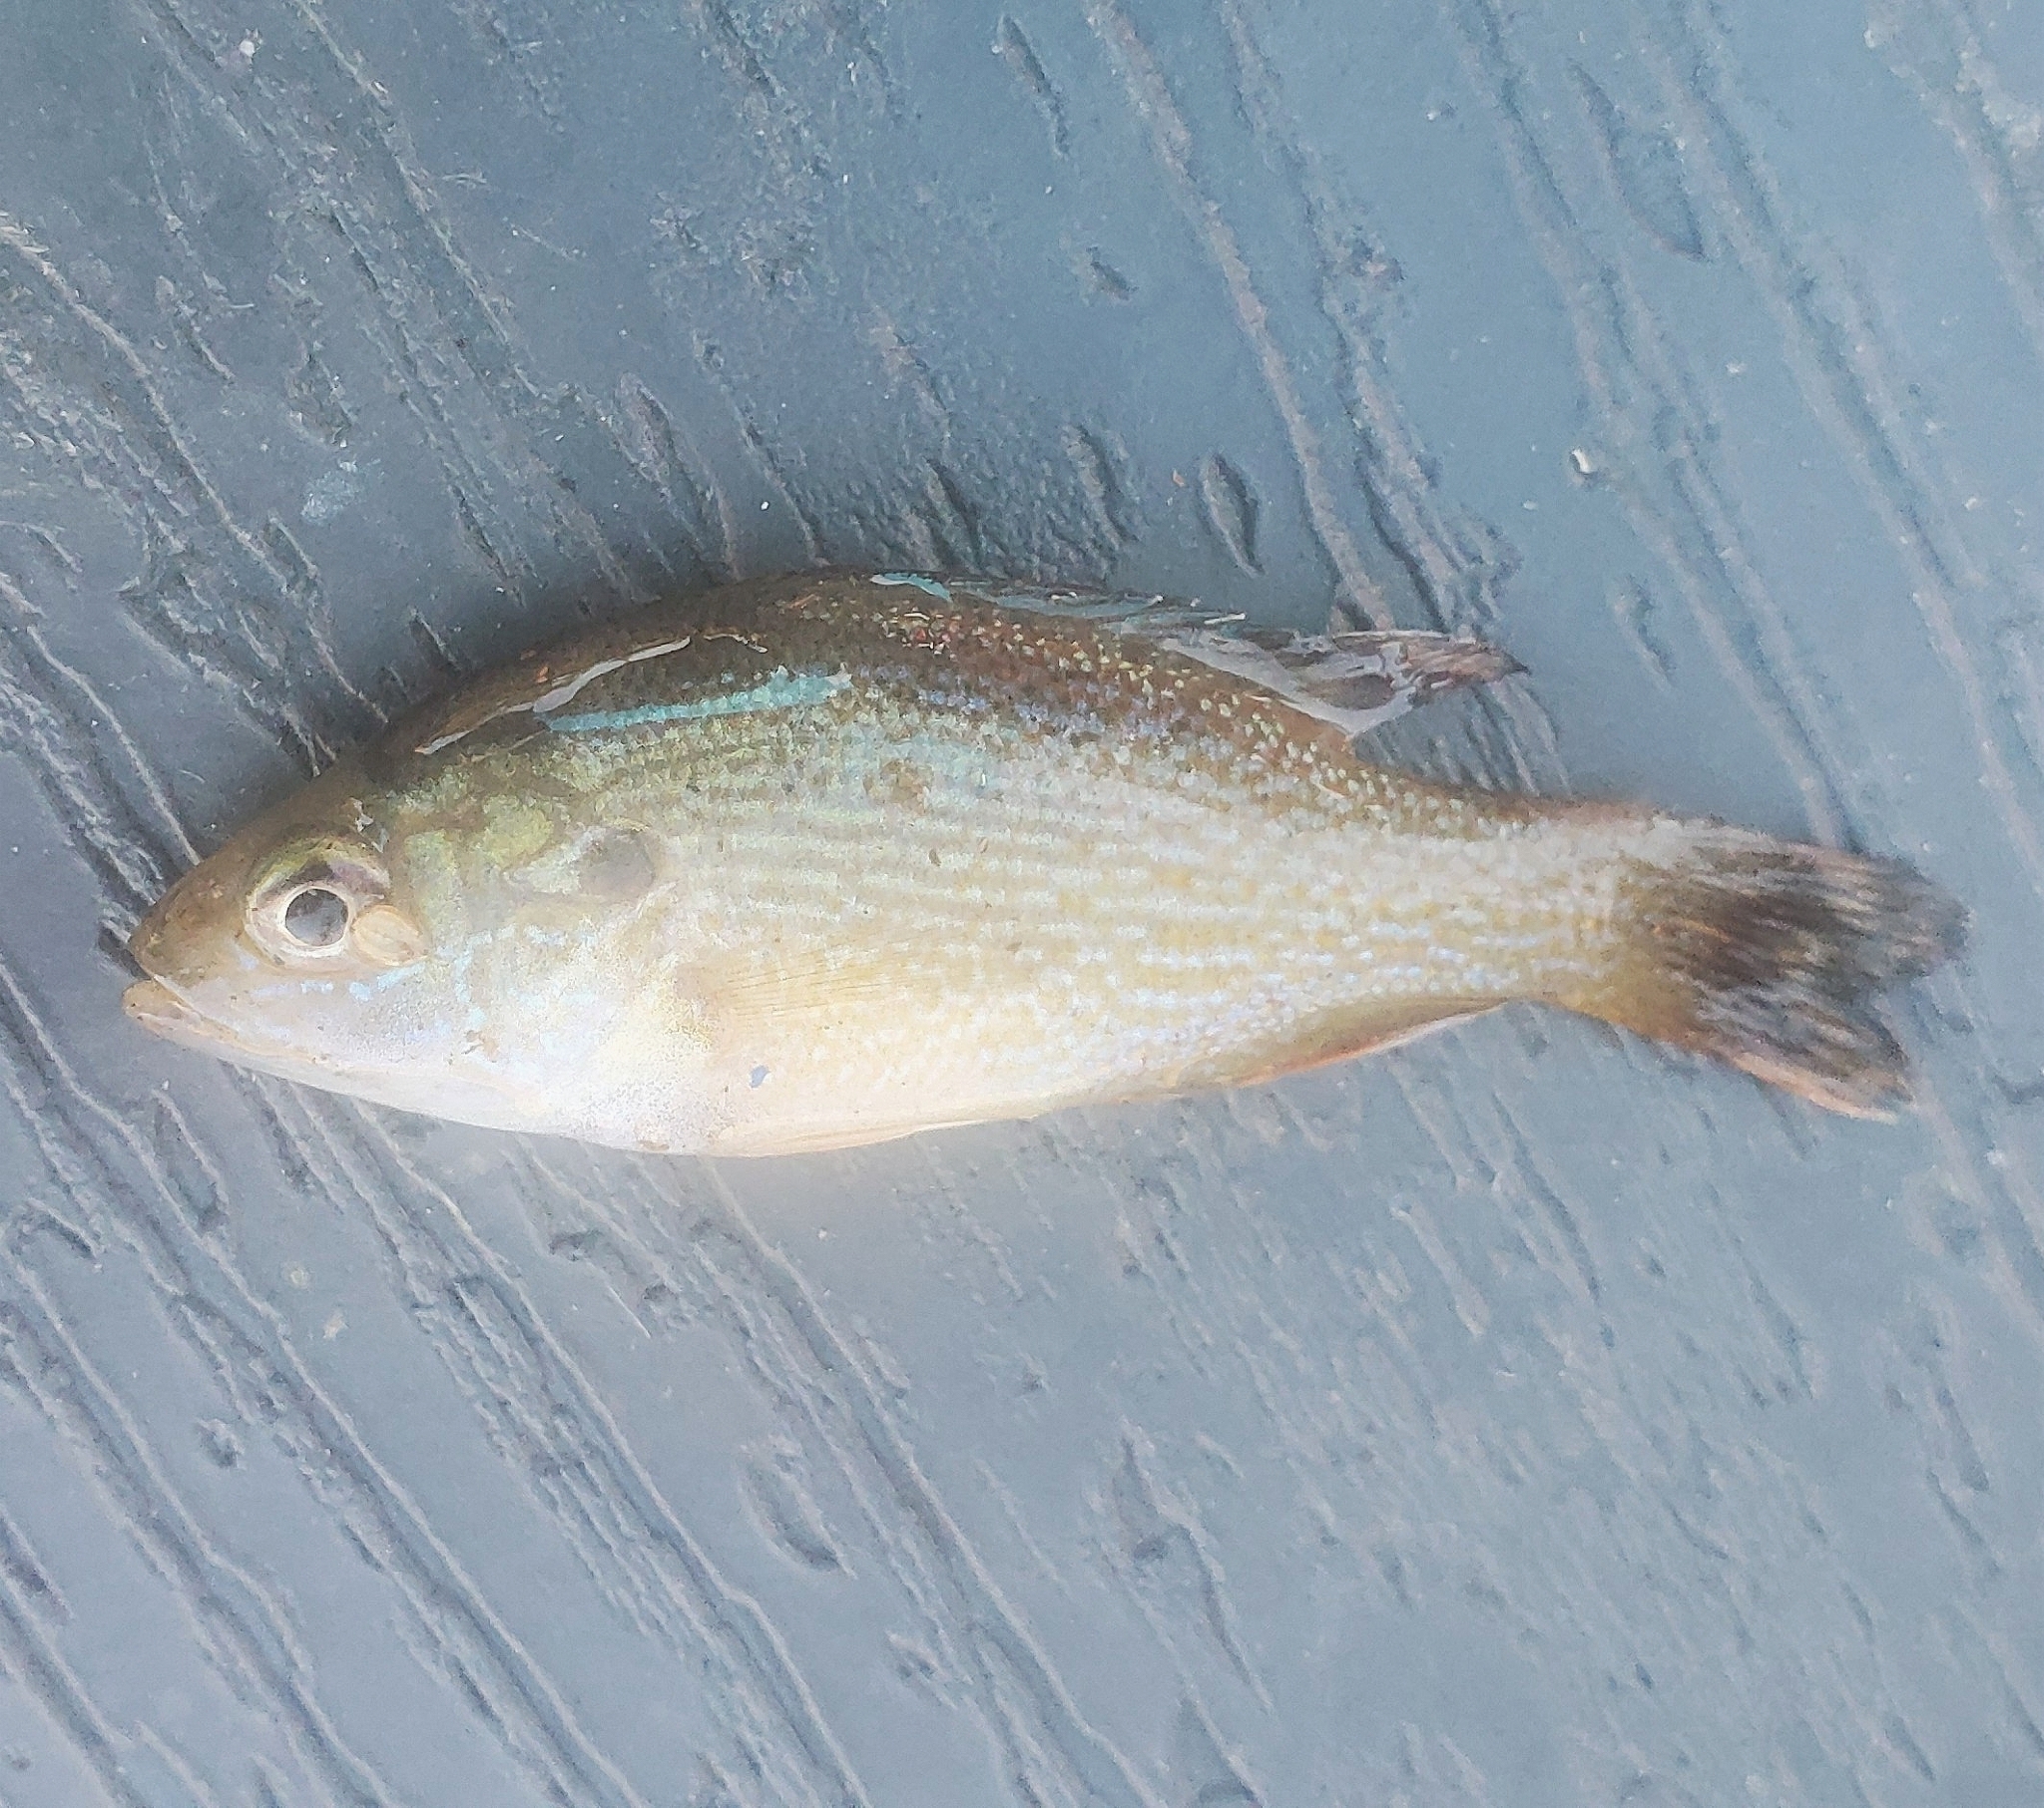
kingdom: Animalia
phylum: Chordata
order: Perciformes
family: Centrarchidae
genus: Lepomis
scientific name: Lepomis cyanellus
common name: Green sunfish
